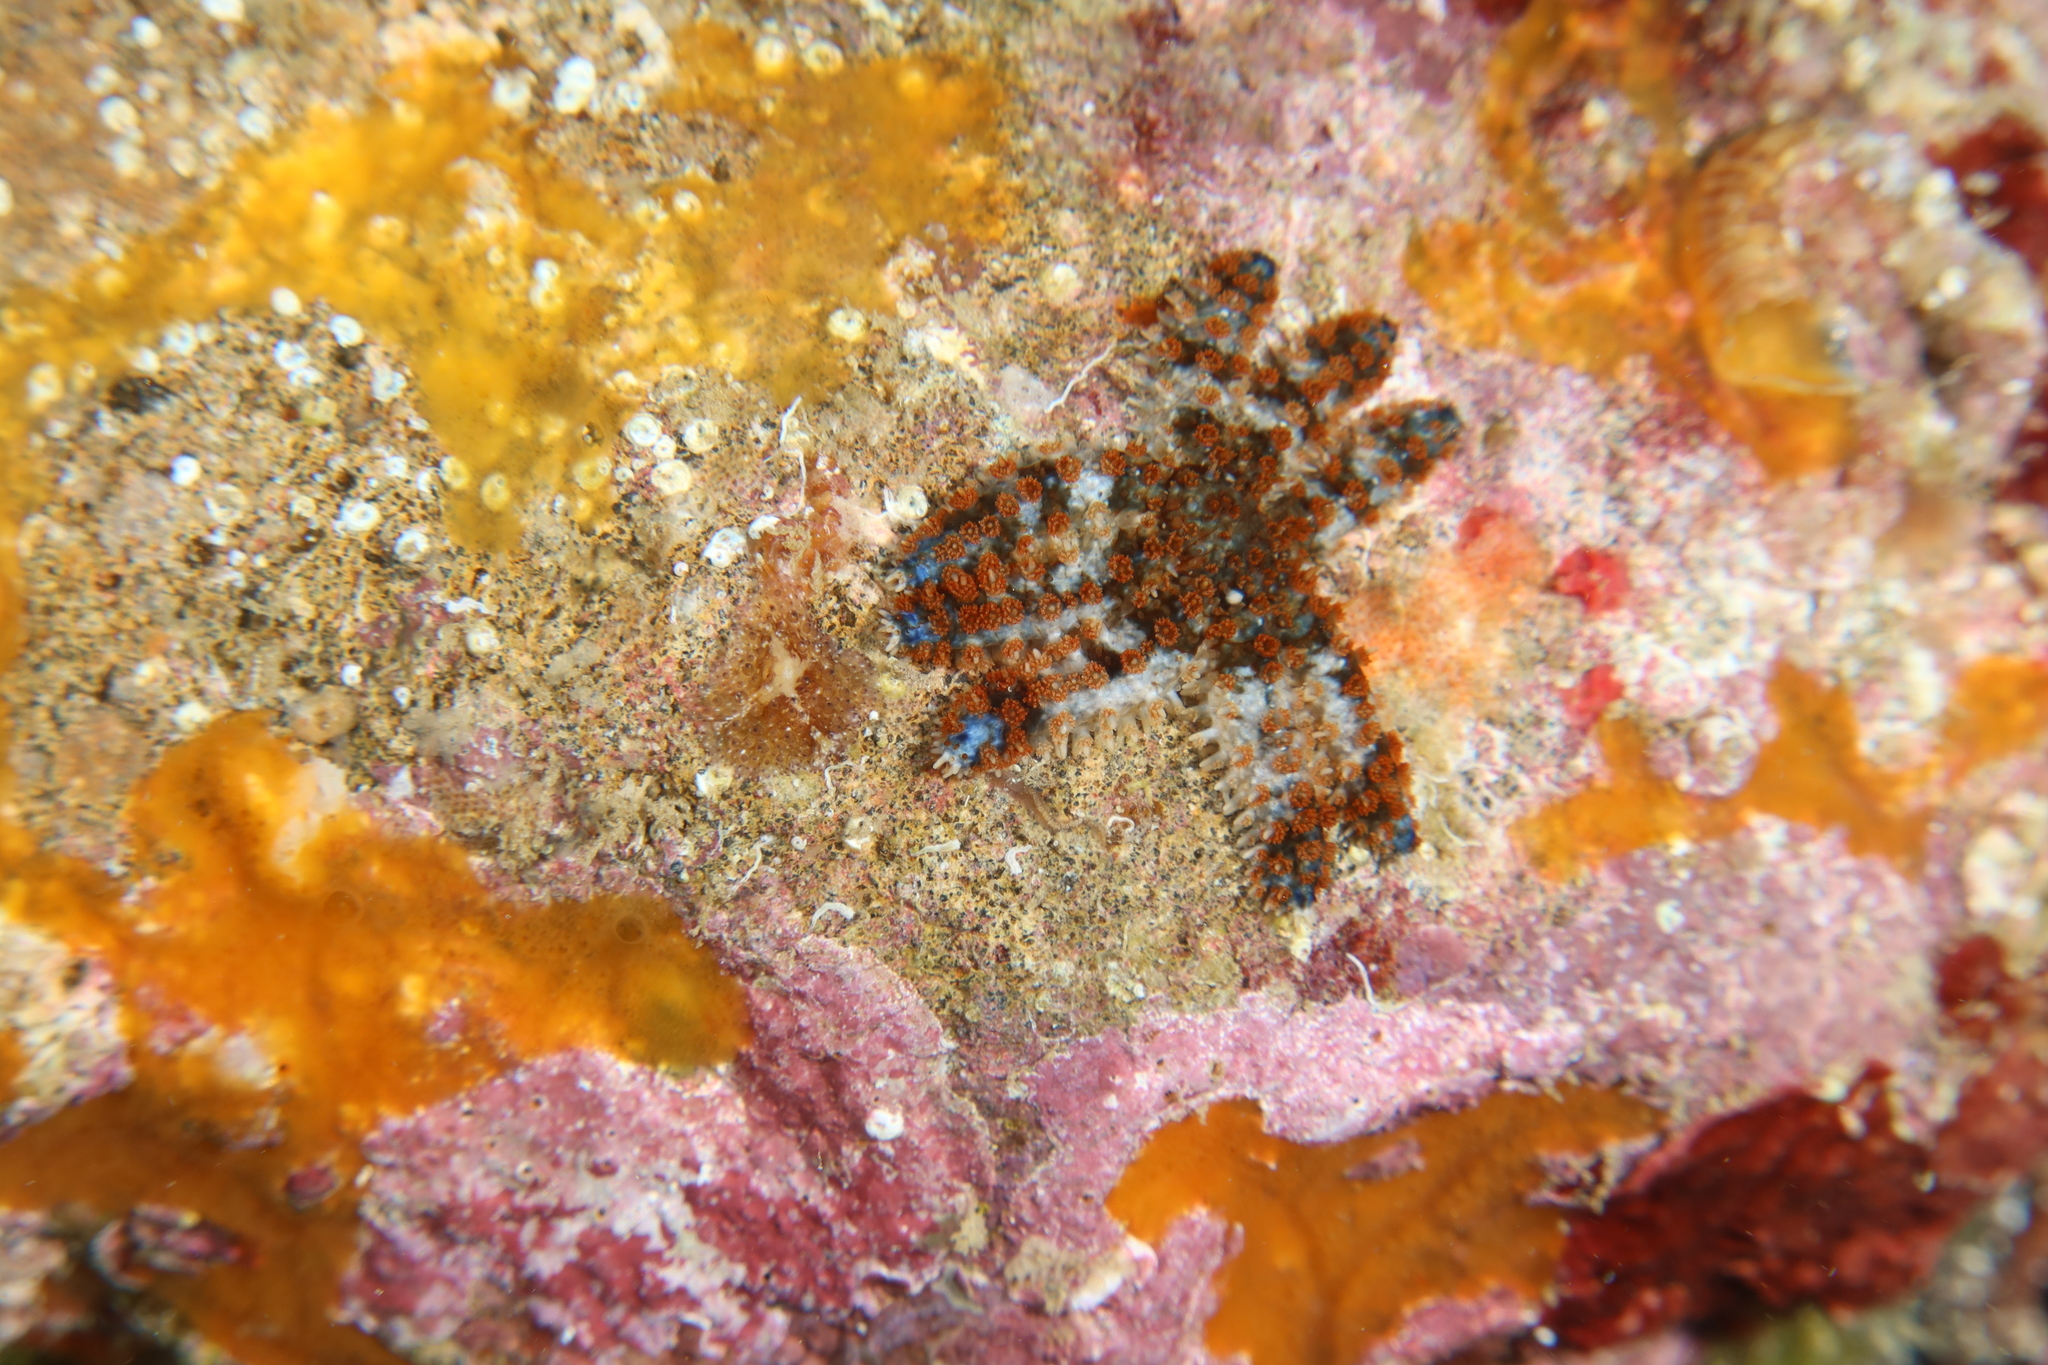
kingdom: Animalia
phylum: Echinodermata
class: Asteroidea
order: Forcipulatida
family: Asteriidae
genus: Coscinasterias
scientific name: Coscinasterias tenuispina
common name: Blue spiny starfish
